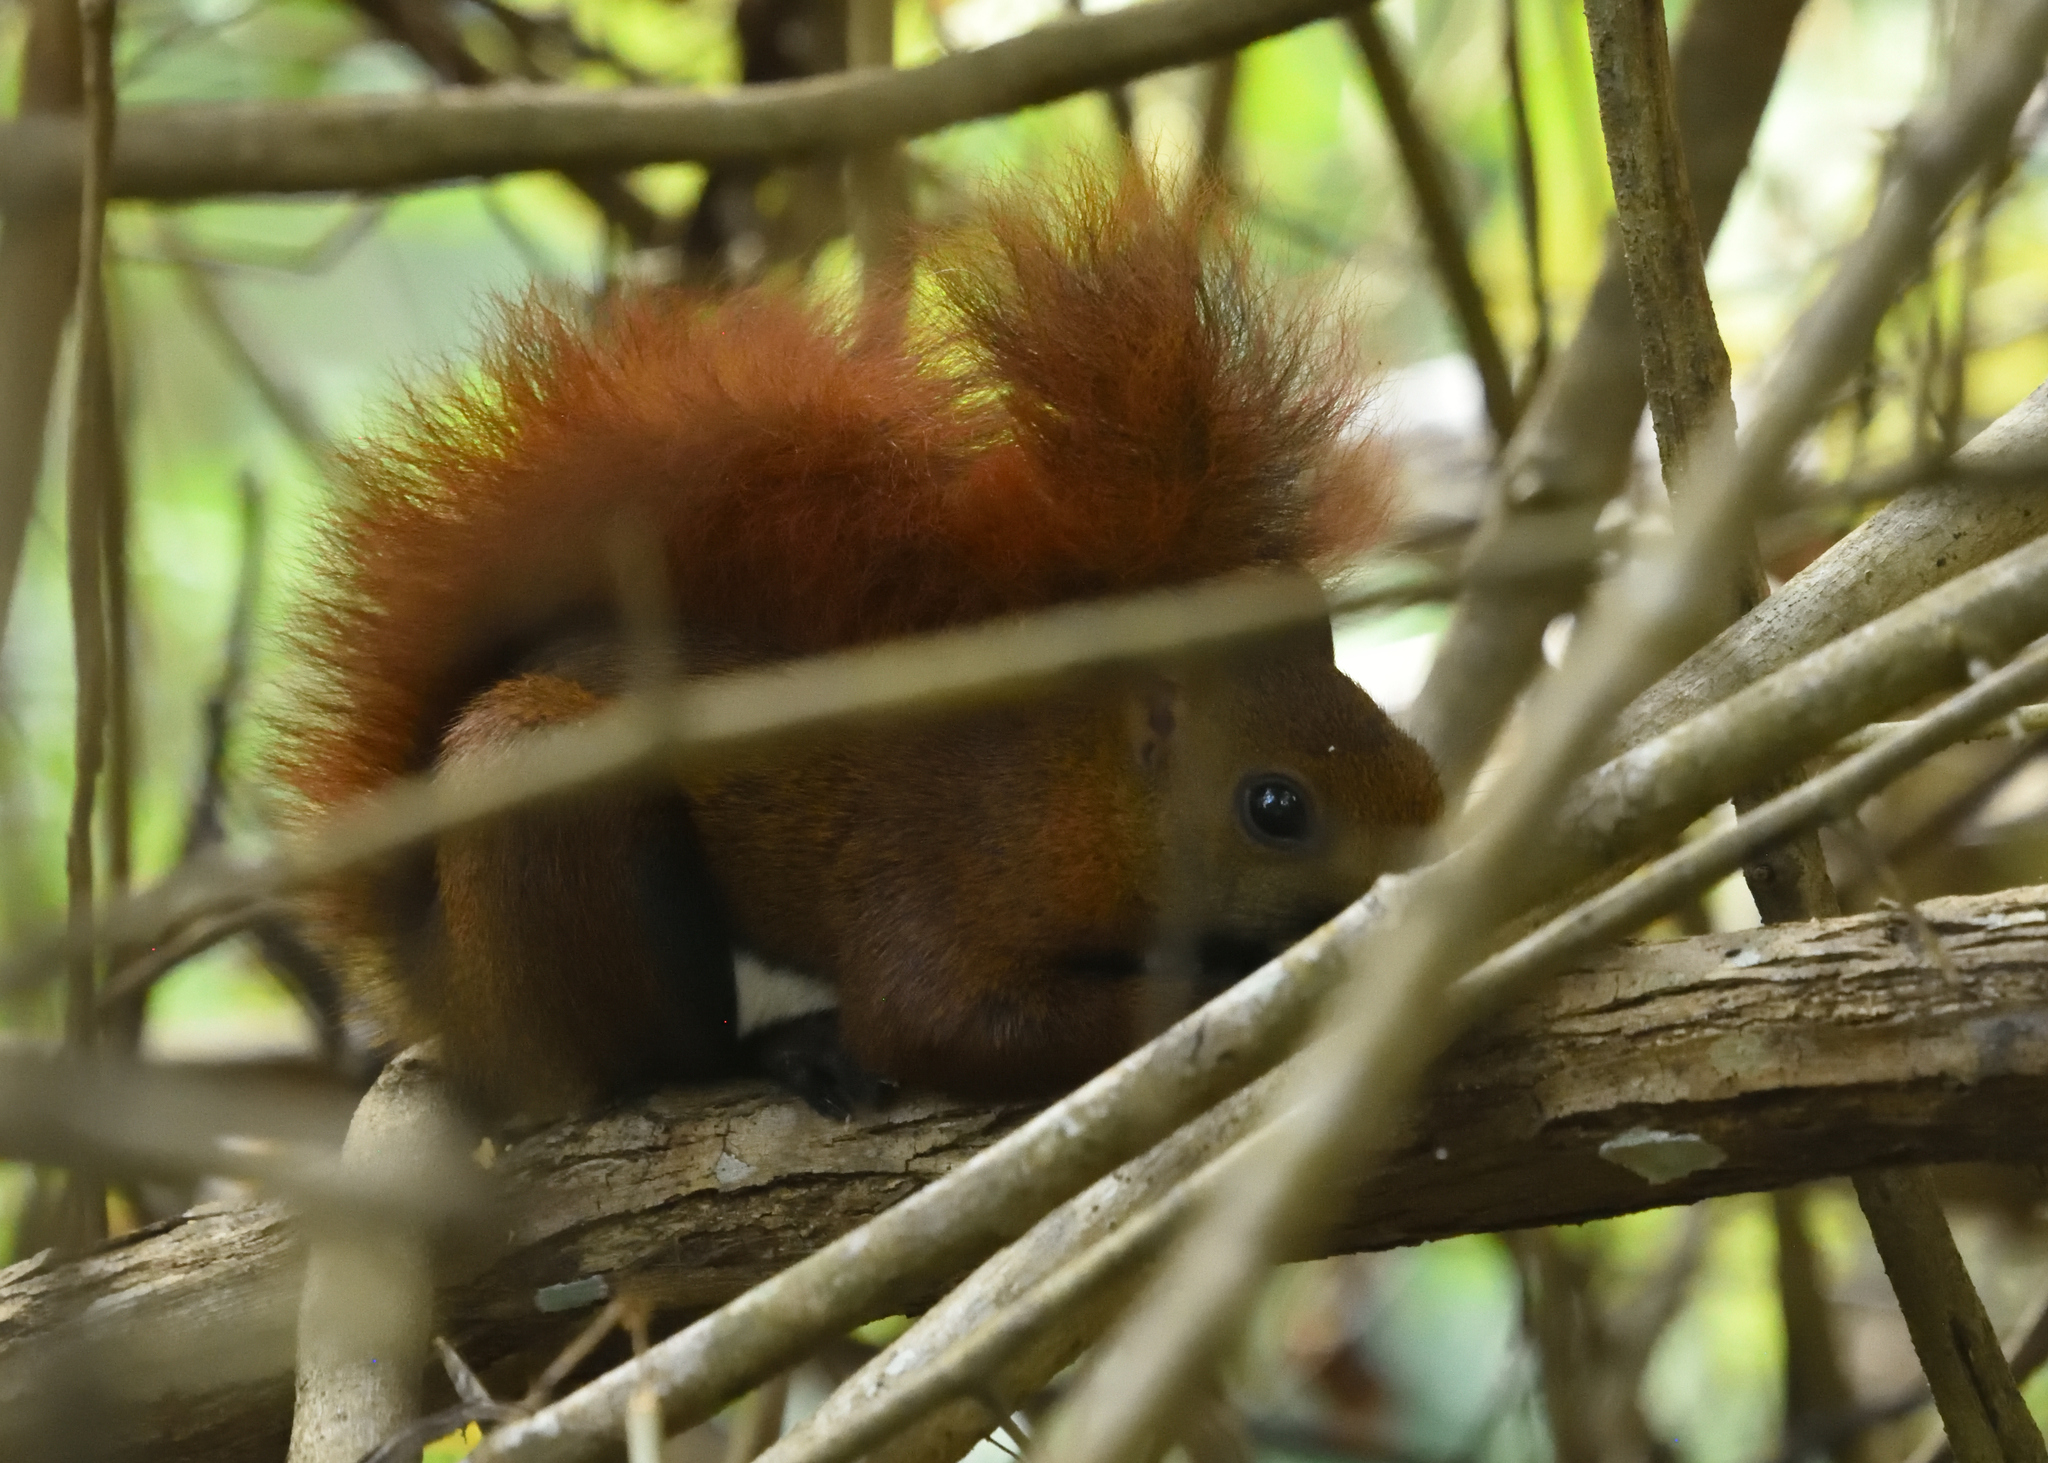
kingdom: Animalia
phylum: Chordata
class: Mammalia
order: Rodentia
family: Sciuridae
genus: Sciurus
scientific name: Sciurus granatensis
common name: Red-tailed squirrel
